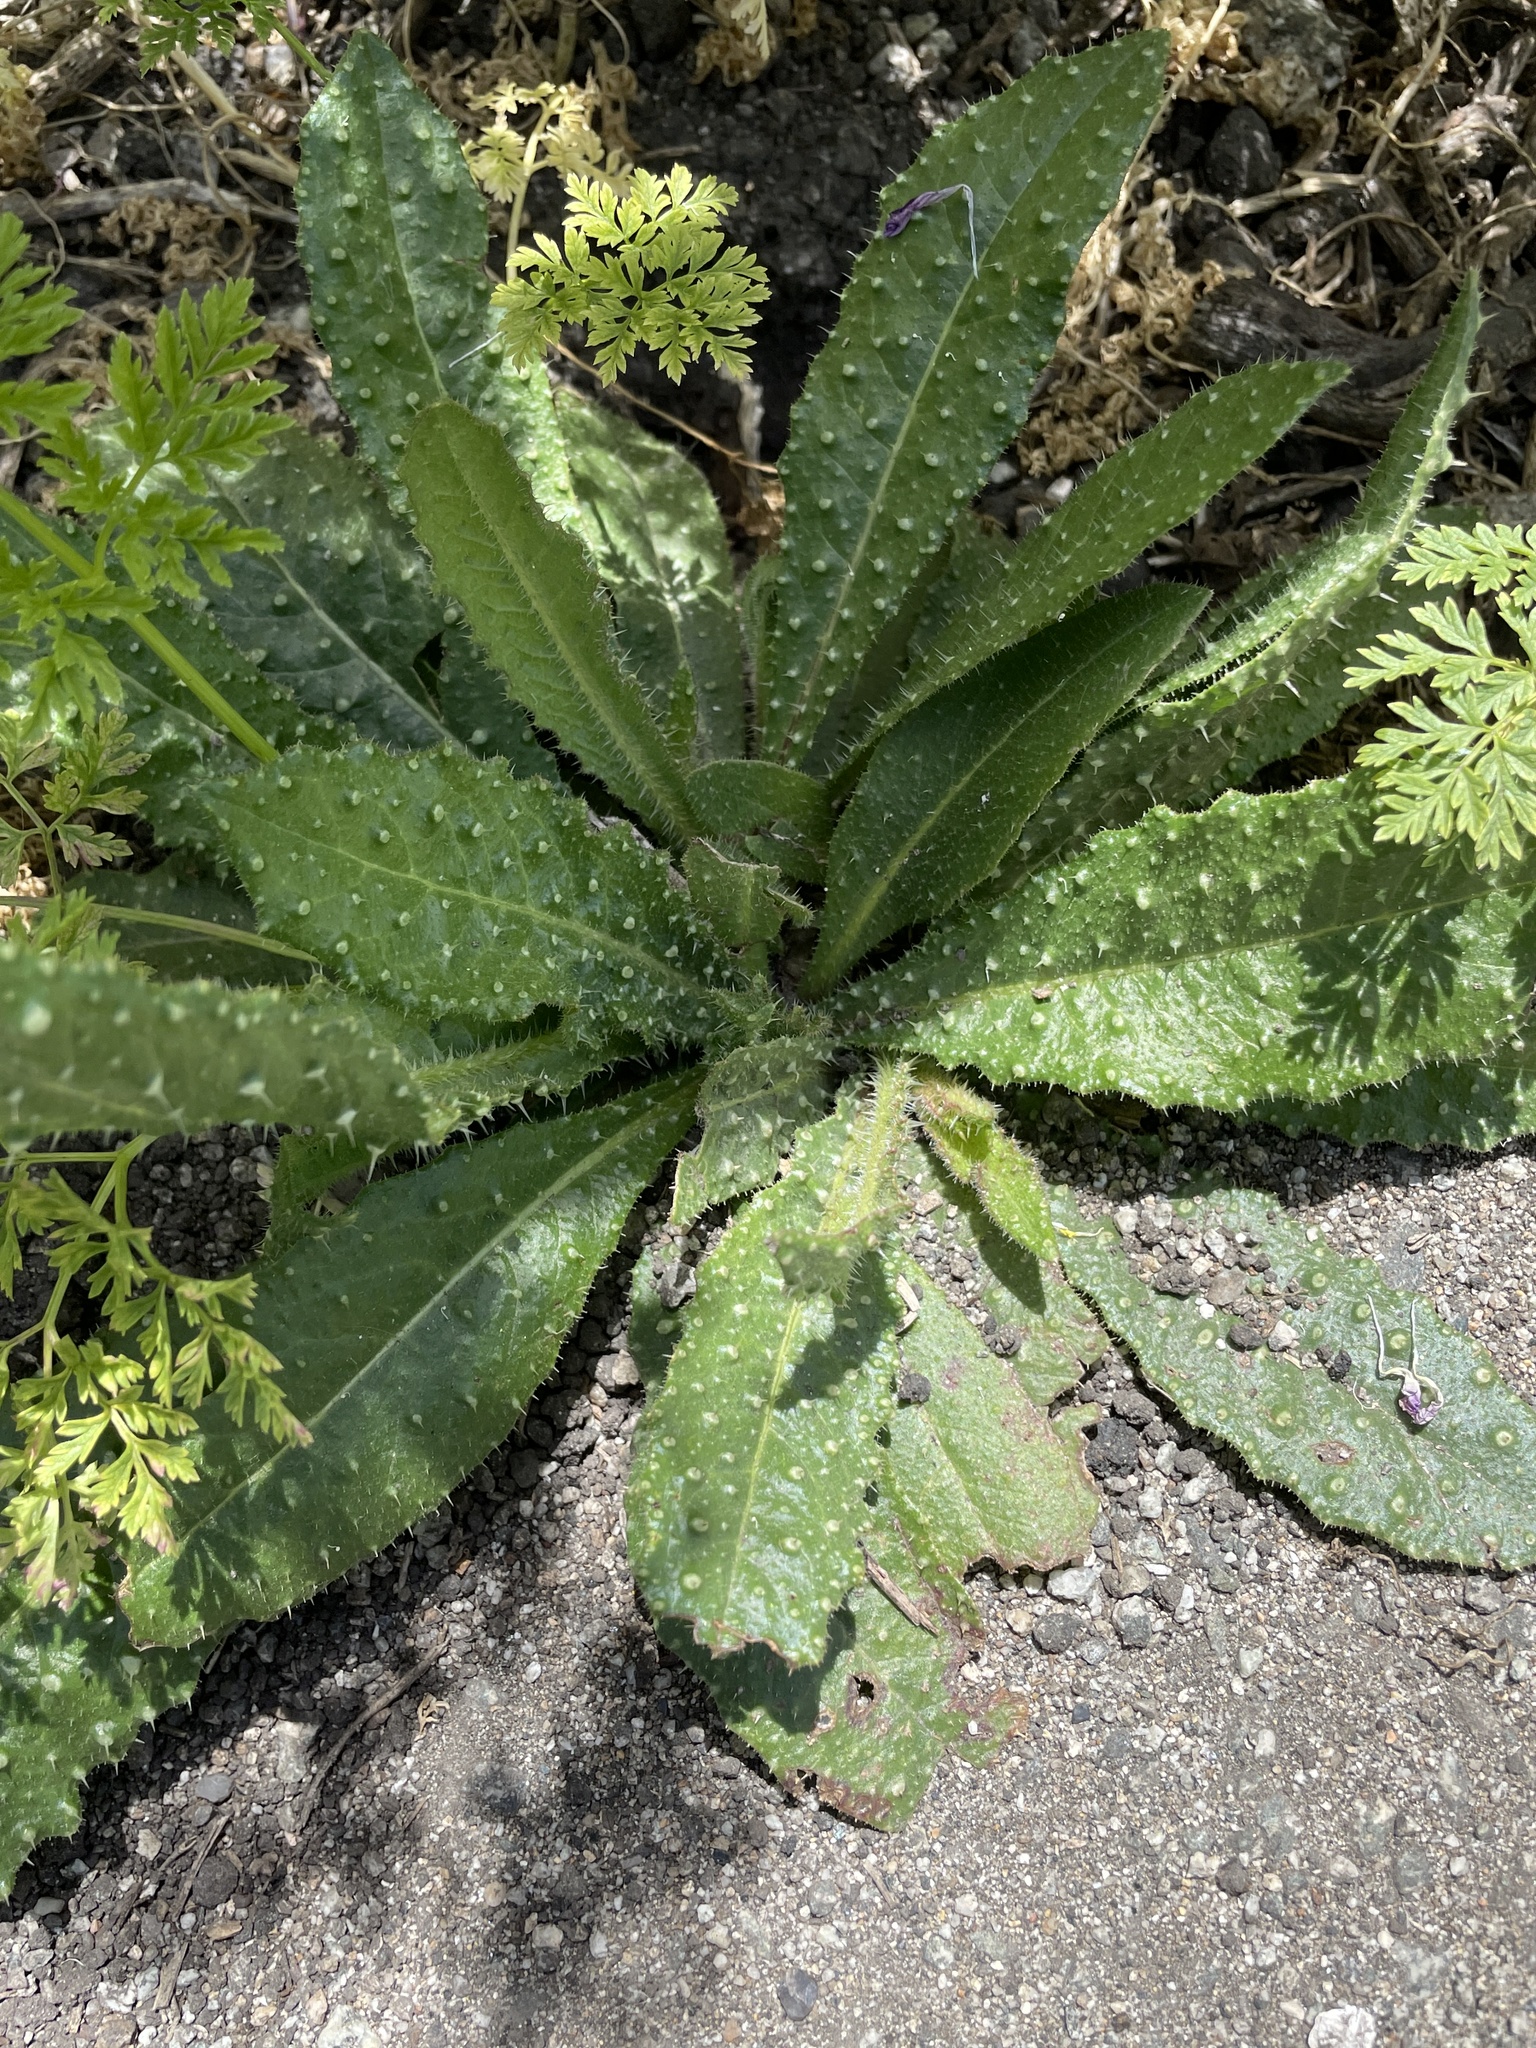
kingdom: Plantae
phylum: Tracheophyta
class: Magnoliopsida
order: Asterales
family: Asteraceae
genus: Helminthotheca
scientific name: Helminthotheca echioides
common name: Ox-tongue
